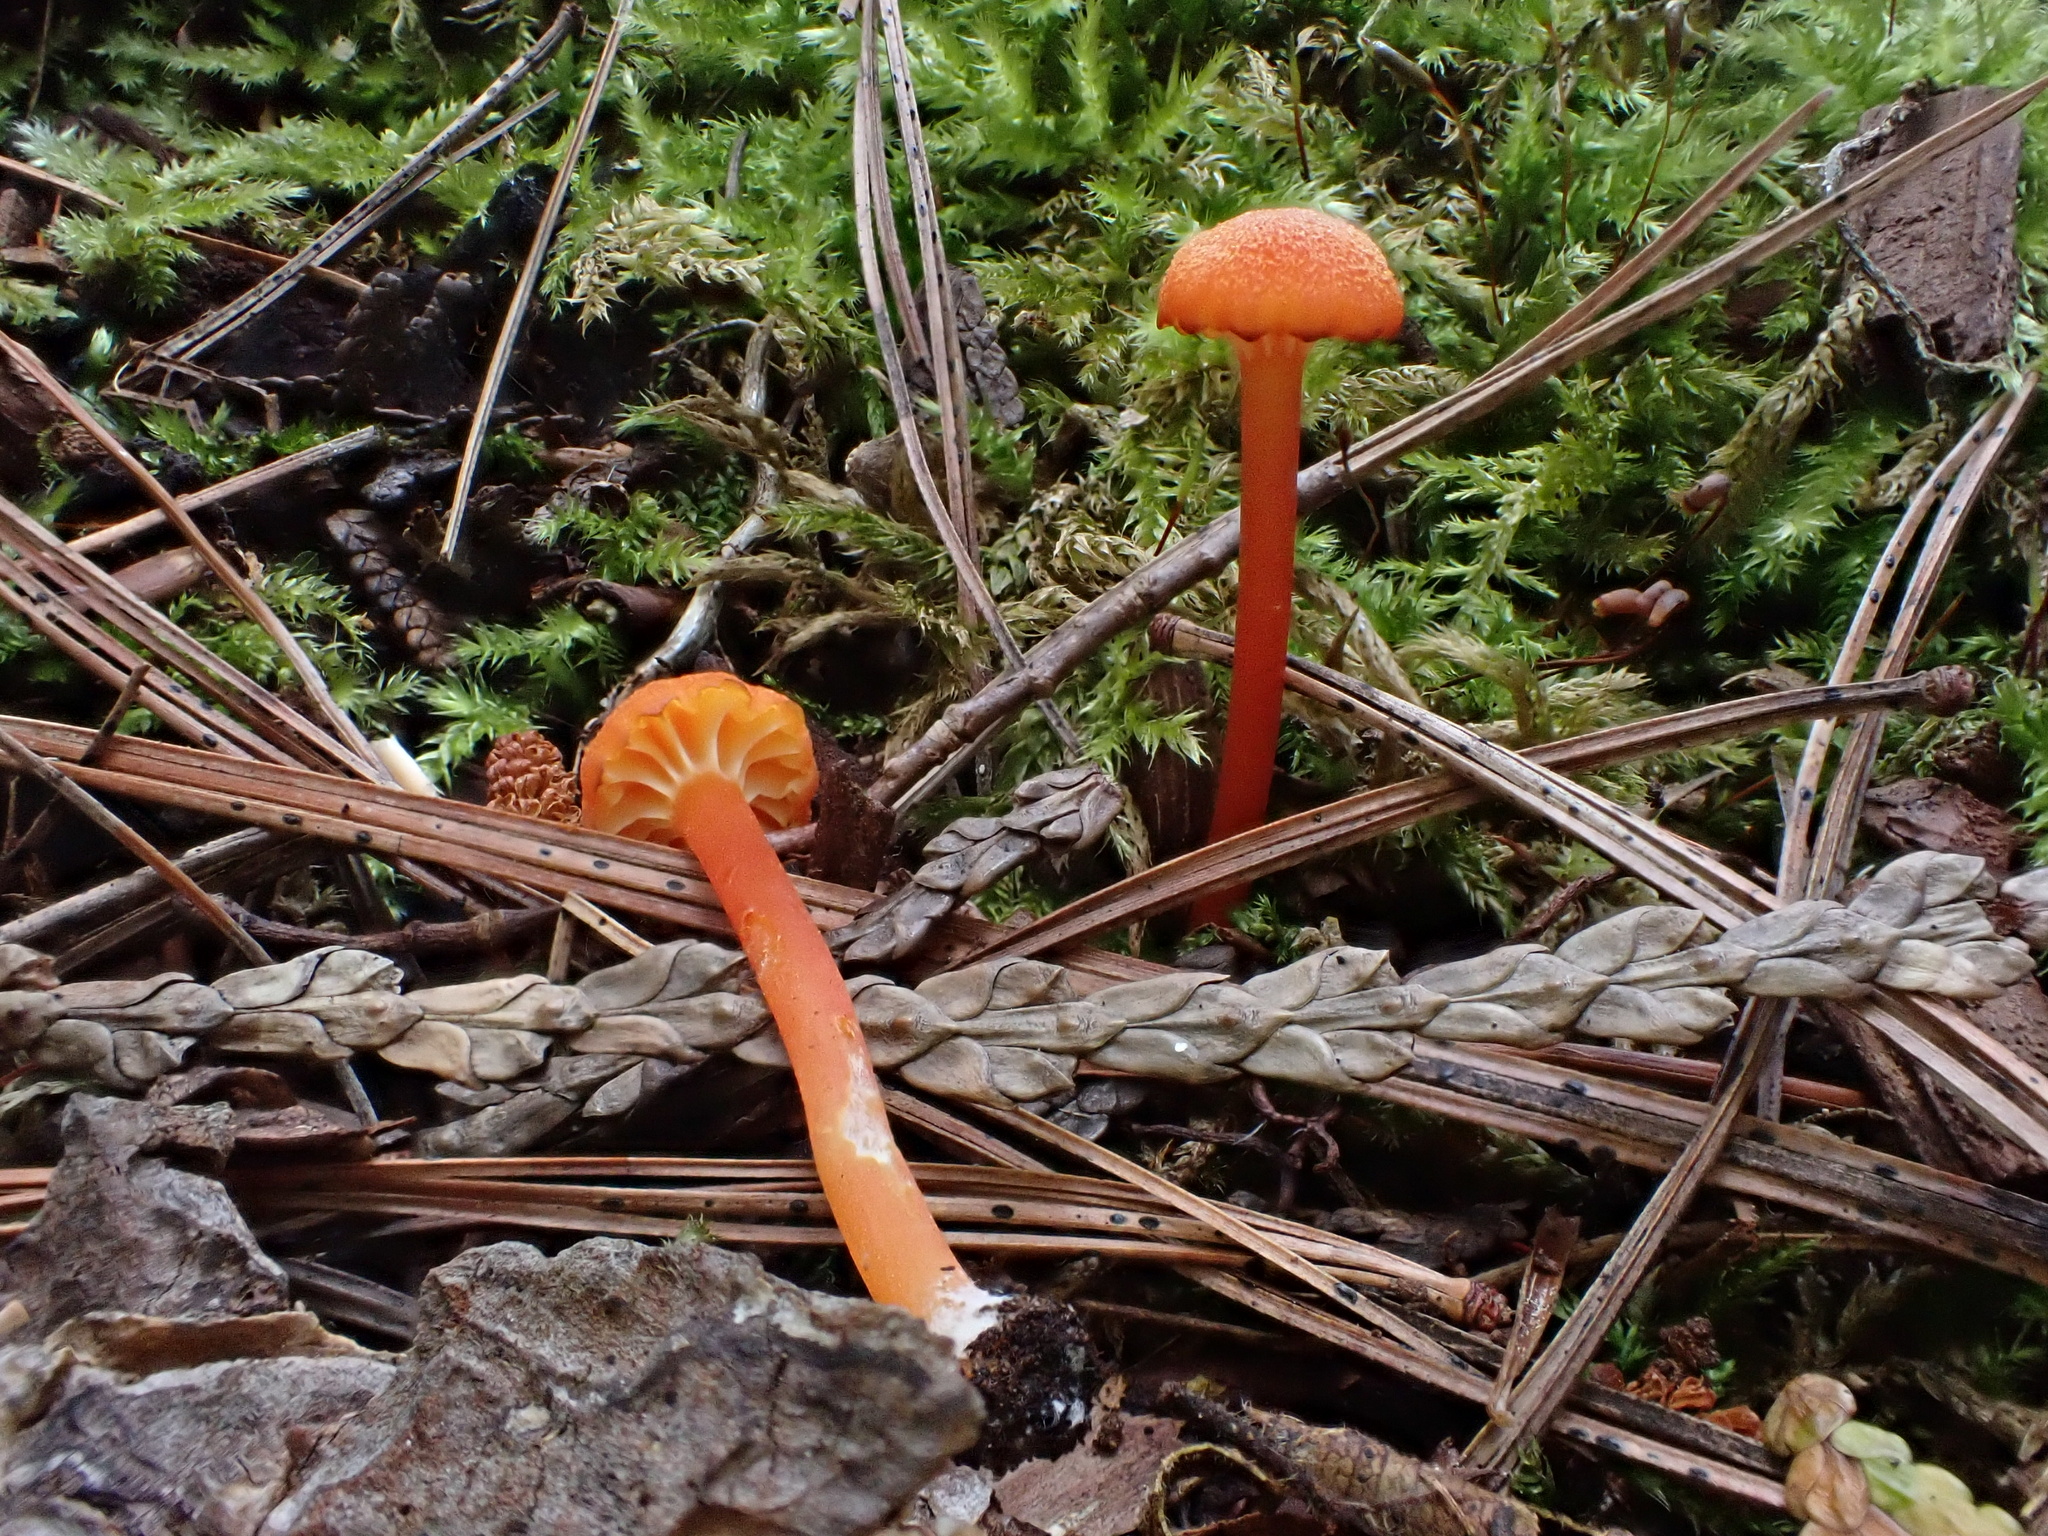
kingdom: Fungi
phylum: Basidiomycota
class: Agaricomycetes
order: Agaricales
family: Hygrophoraceae
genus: Hygrocybe
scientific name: Hygrocybe cantharellus
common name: Goblet waxcap
